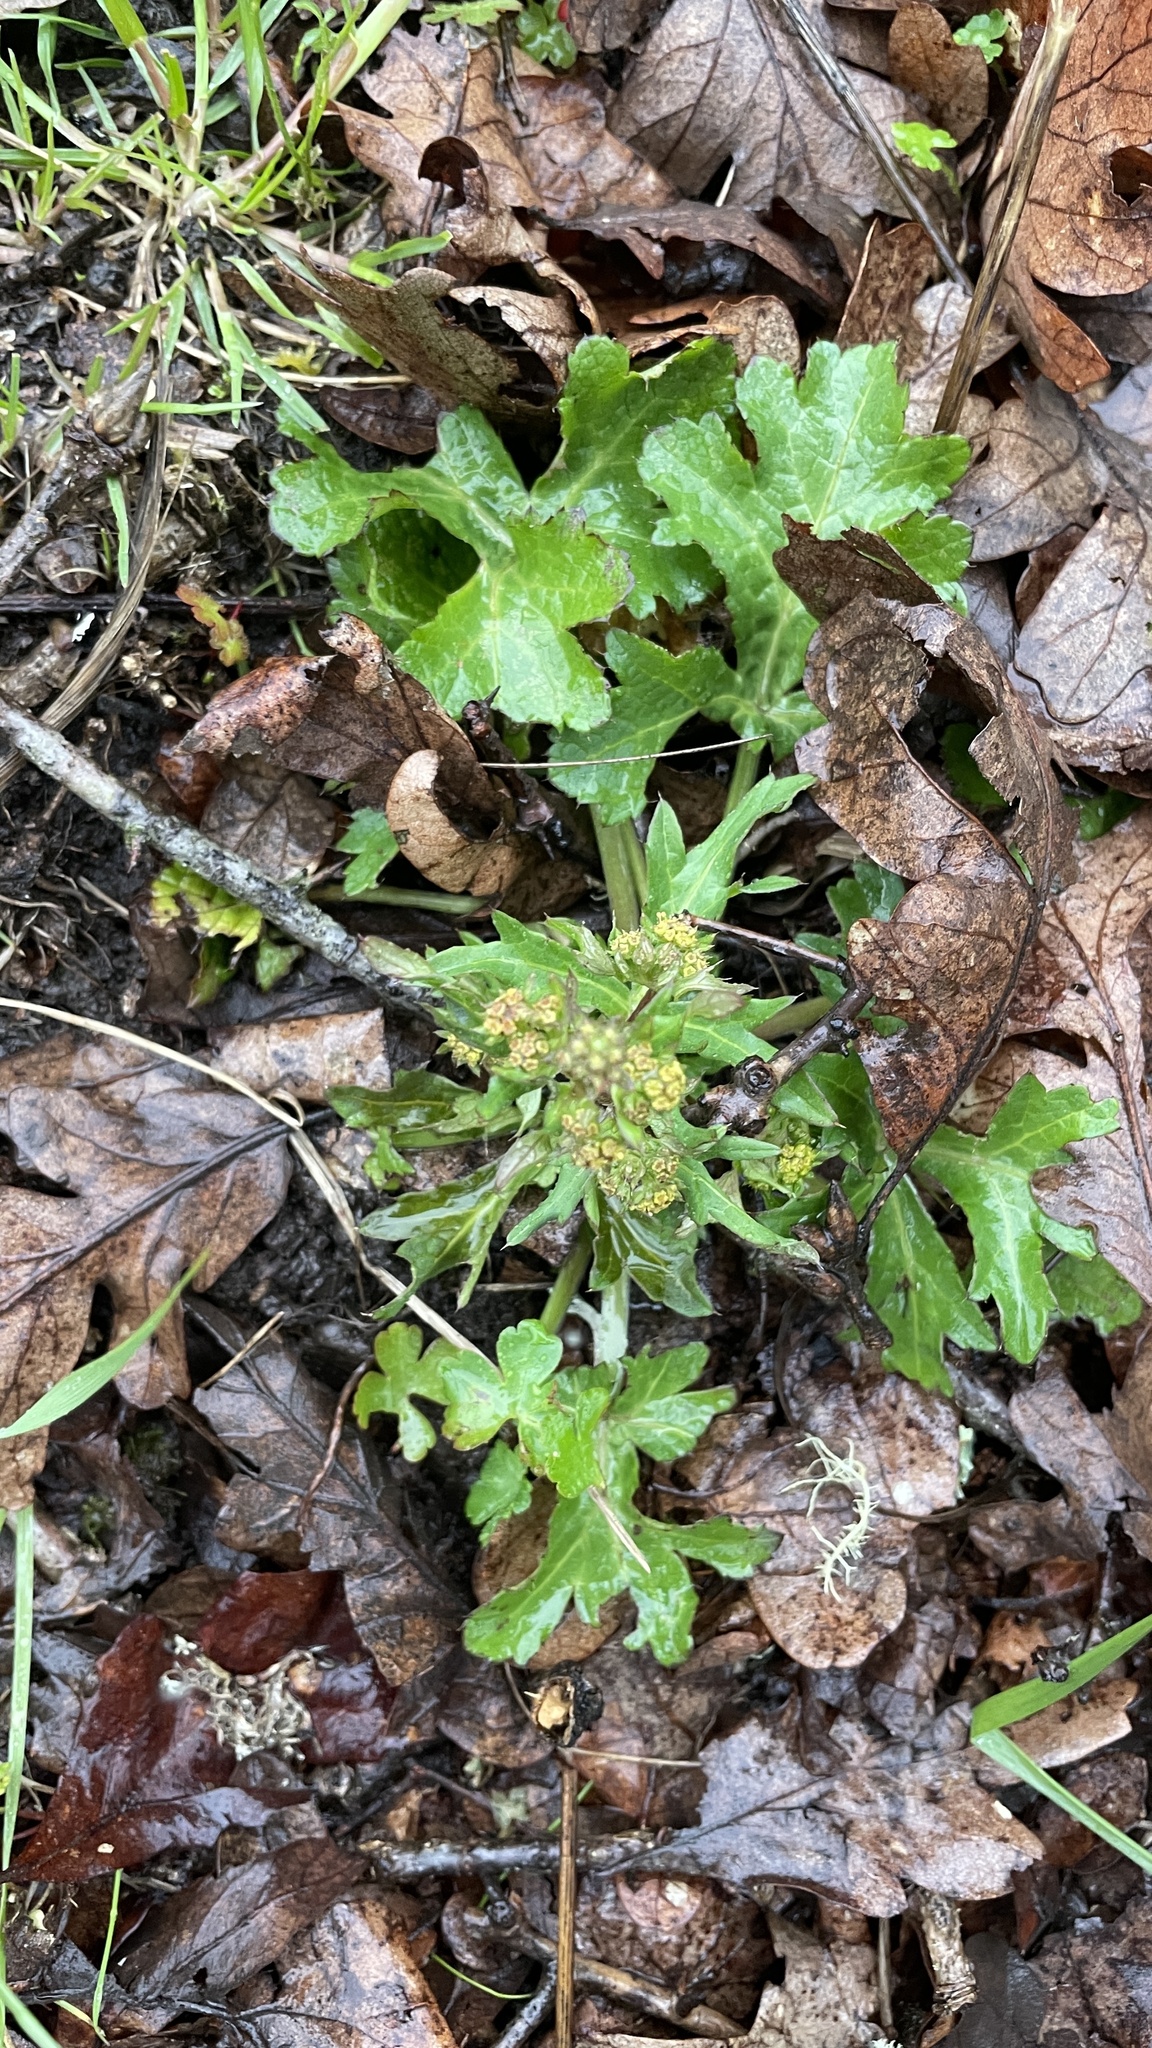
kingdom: Plantae
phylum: Tracheophyta
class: Magnoliopsida
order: Apiales
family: Apiaceae
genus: Sanicula
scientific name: Sanicula crassicaulis
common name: Western snakeroot
